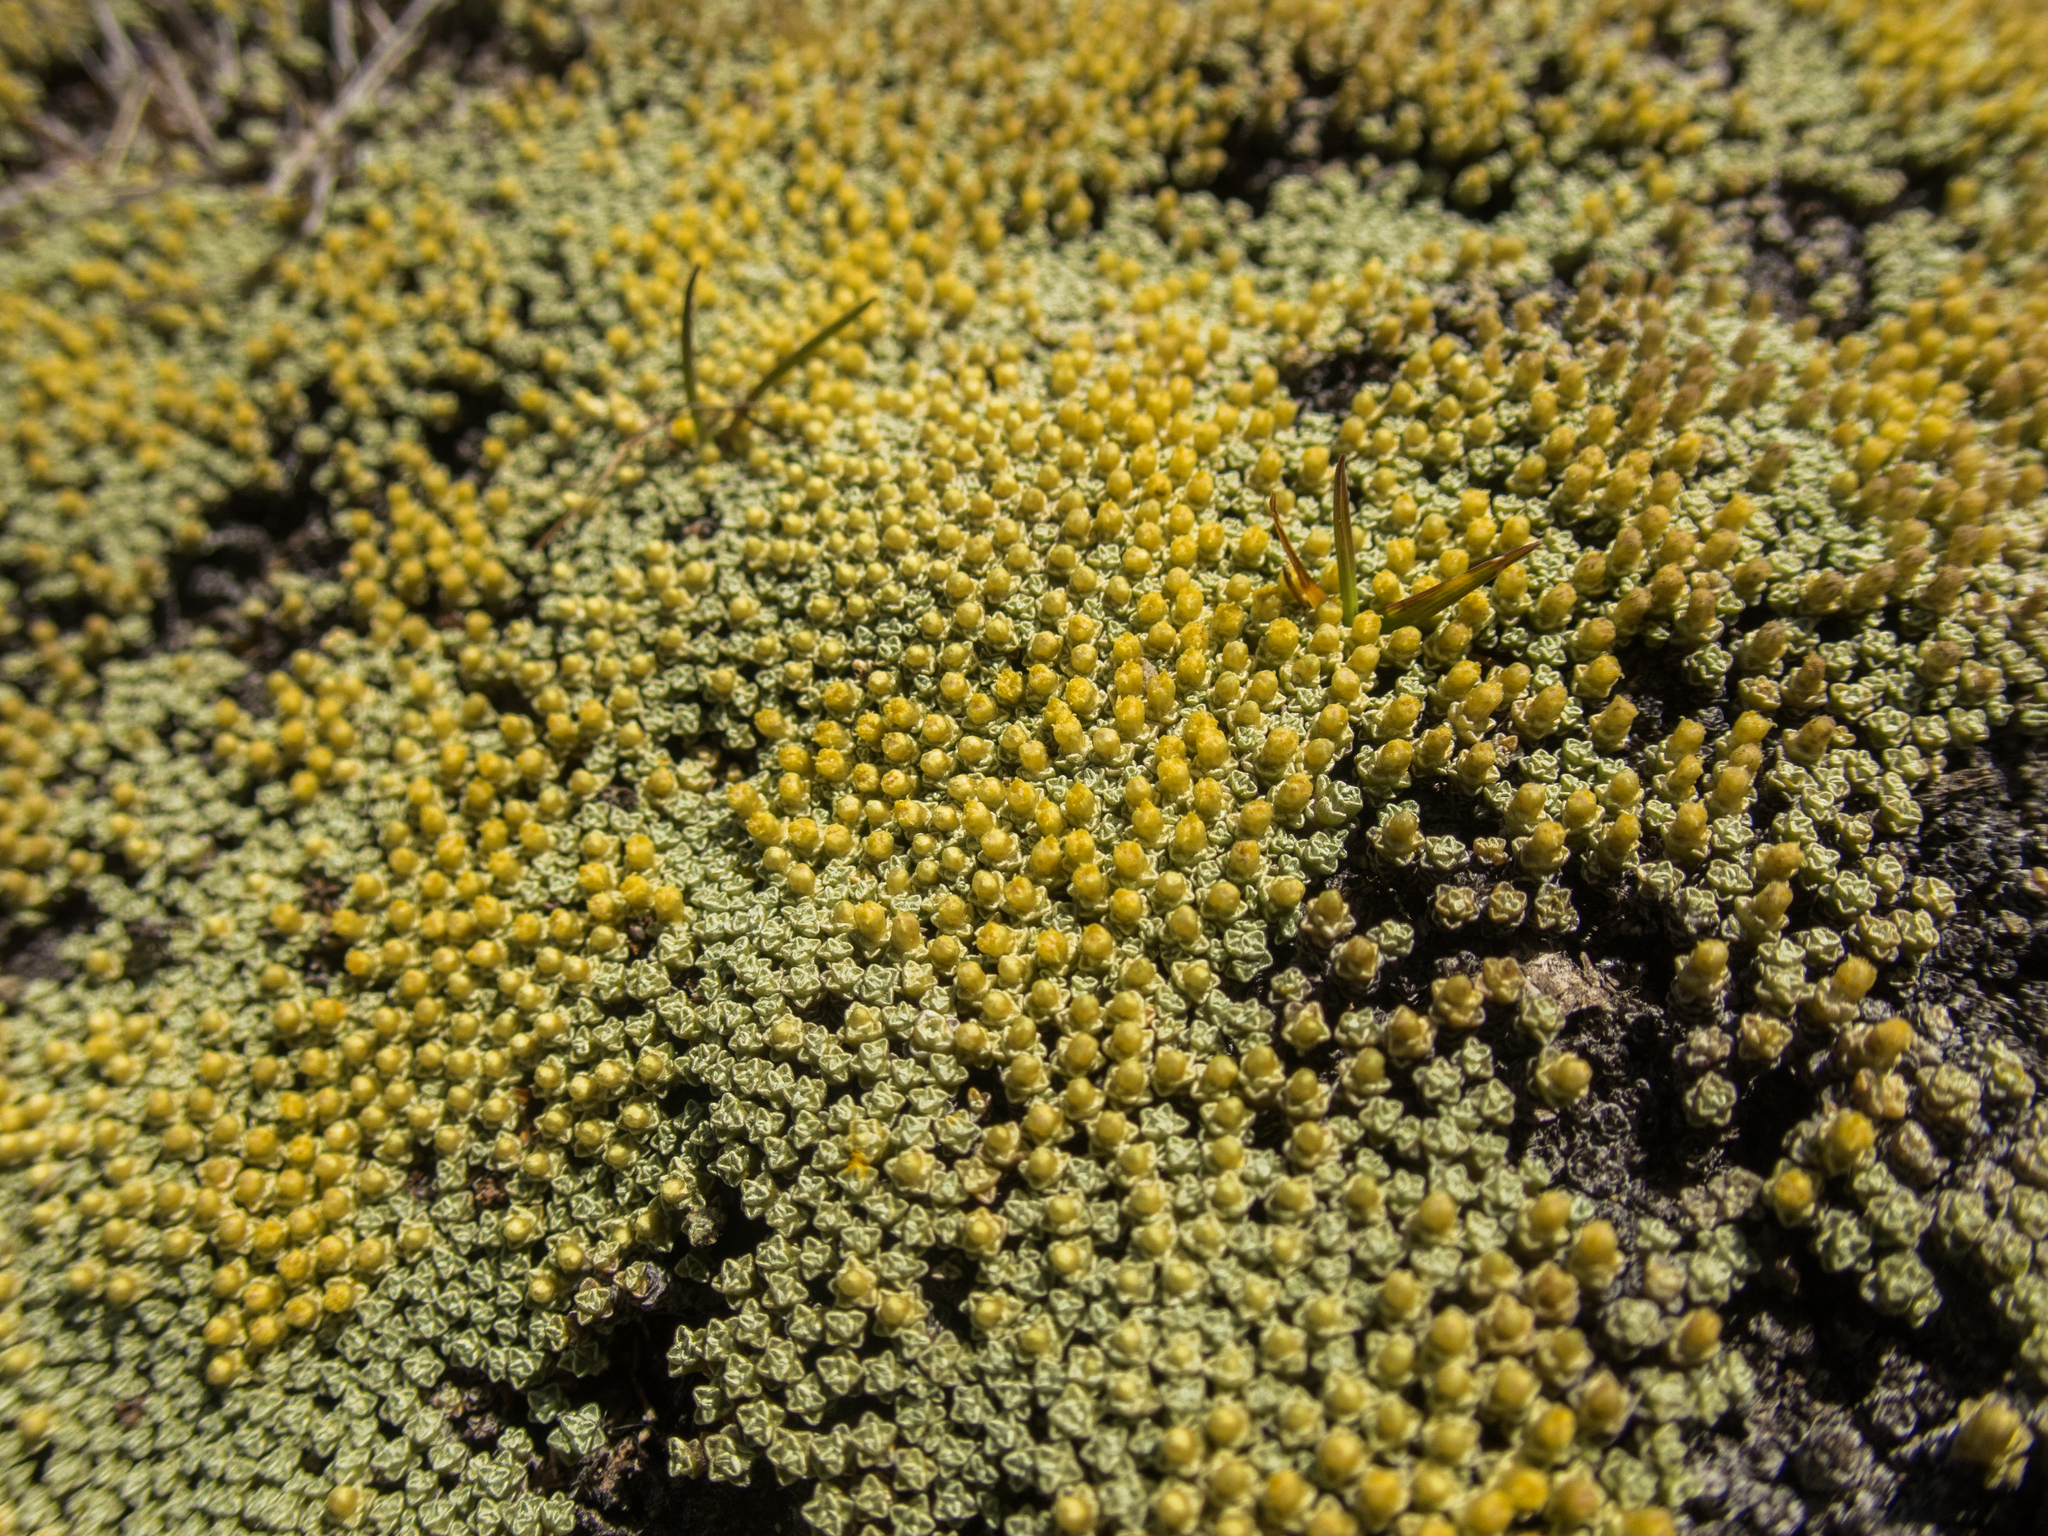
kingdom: Plantae
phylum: Tracheophyta
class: Magnoliopsida
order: Asterales
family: Asteraceae
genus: Raoulia
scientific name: Raoulia australis
